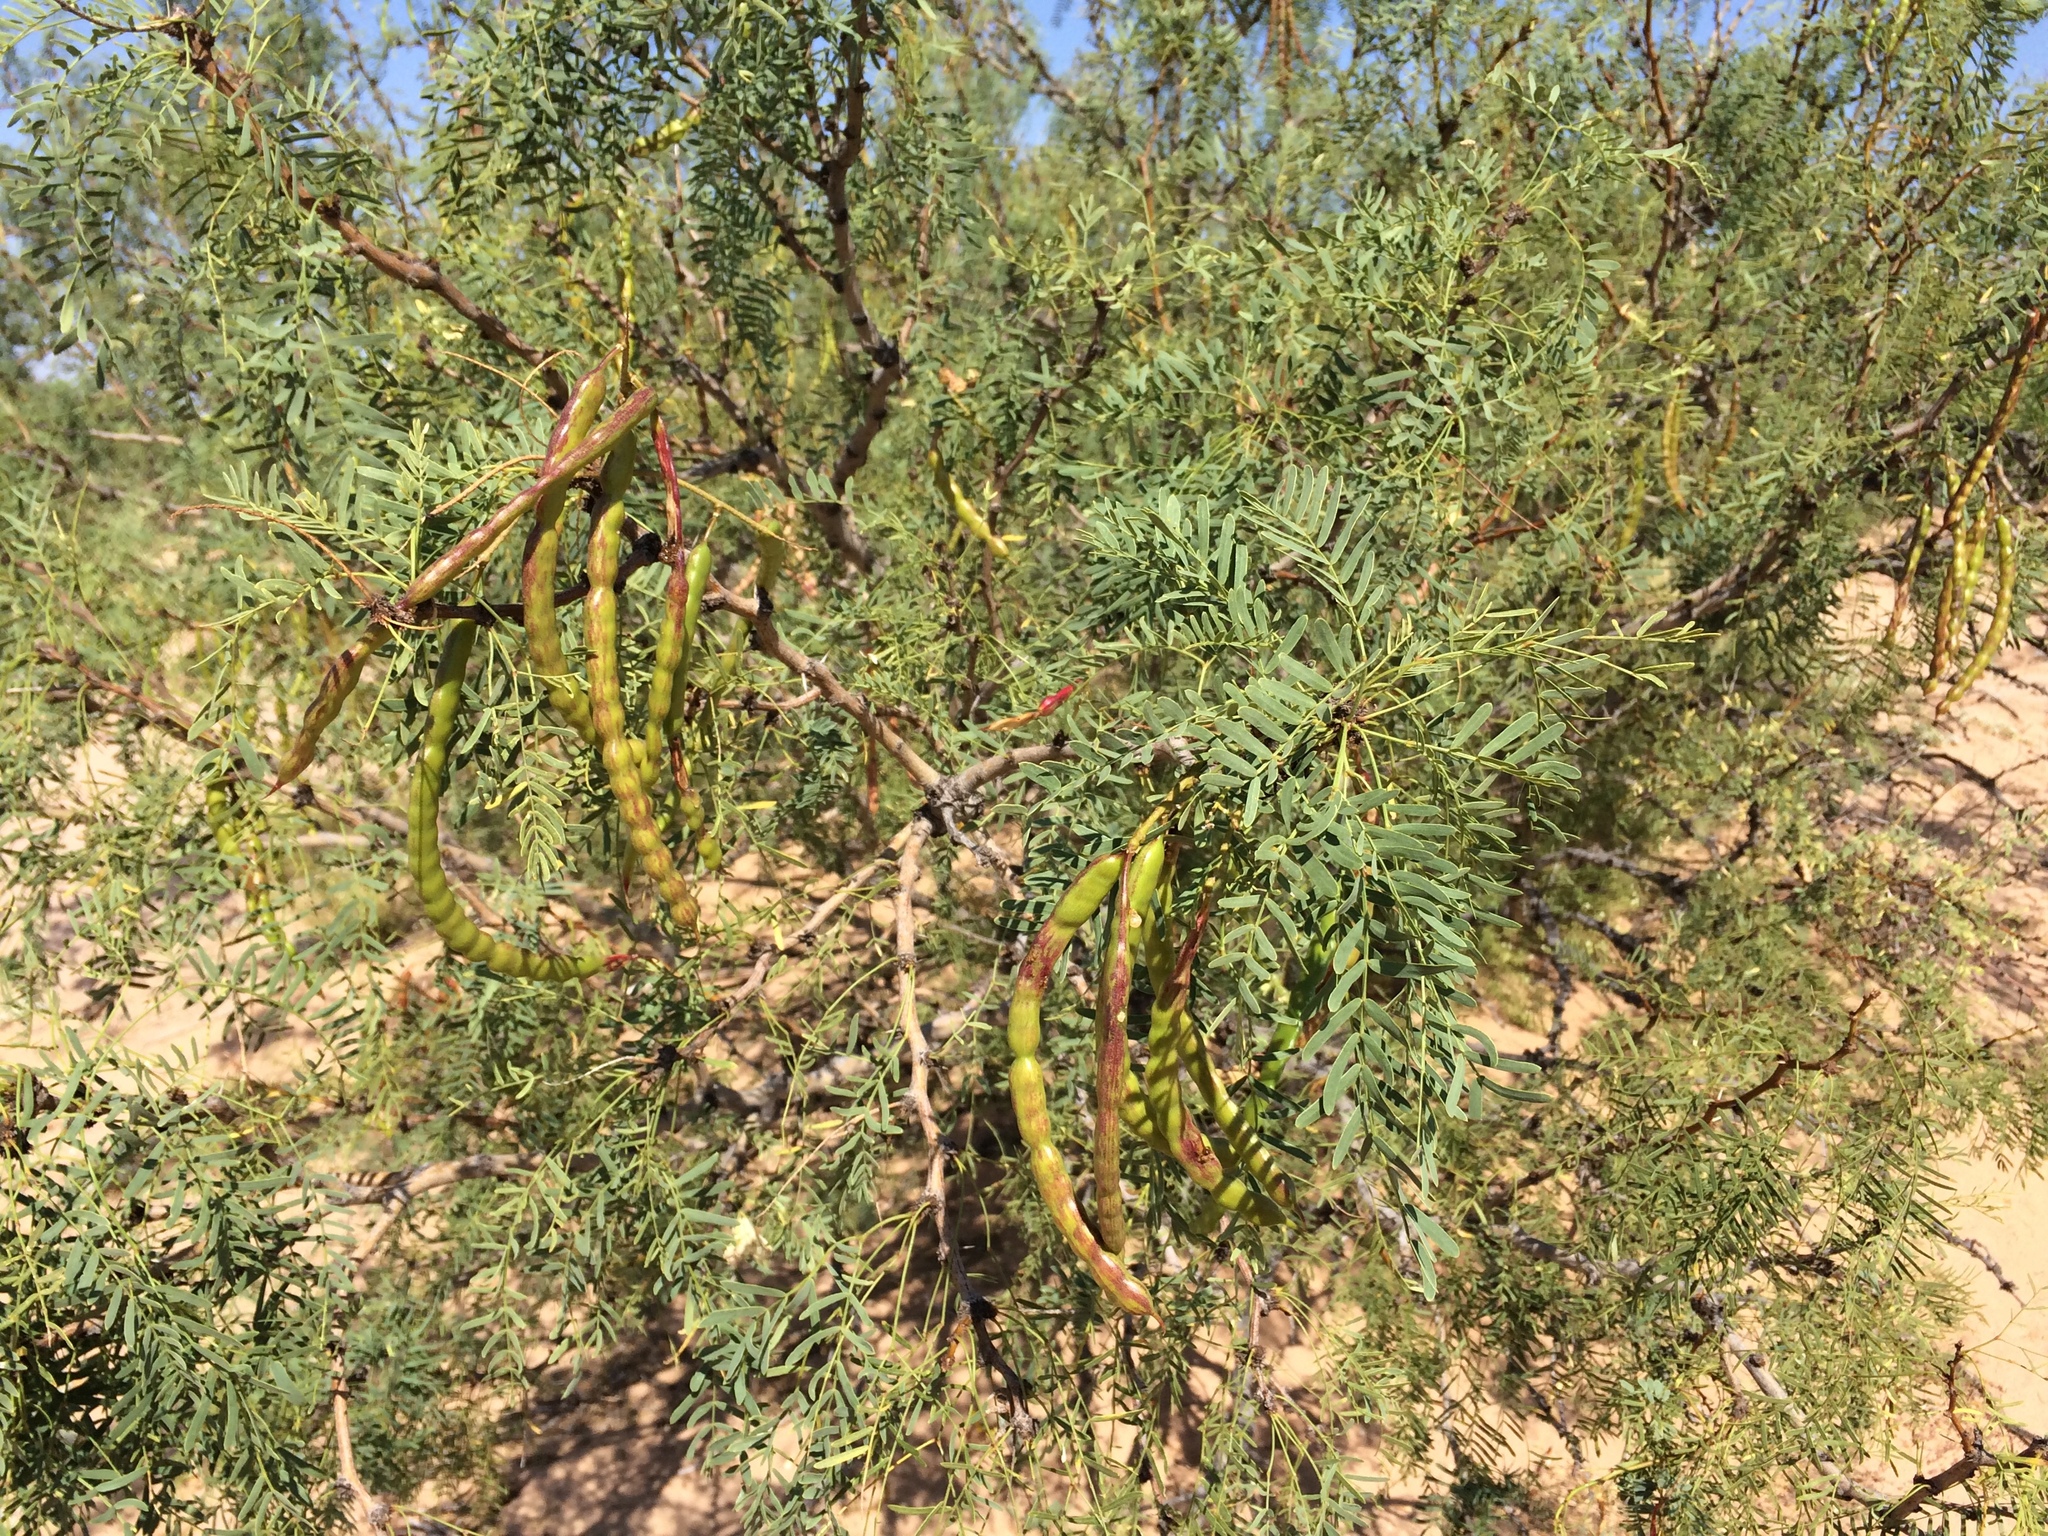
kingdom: Plantae
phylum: Tracheophyta
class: Magnoliopsida
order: Fabales
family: Fabaceae
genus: Prosopis
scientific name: Prosopis glandulosa
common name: Honey mesquite
